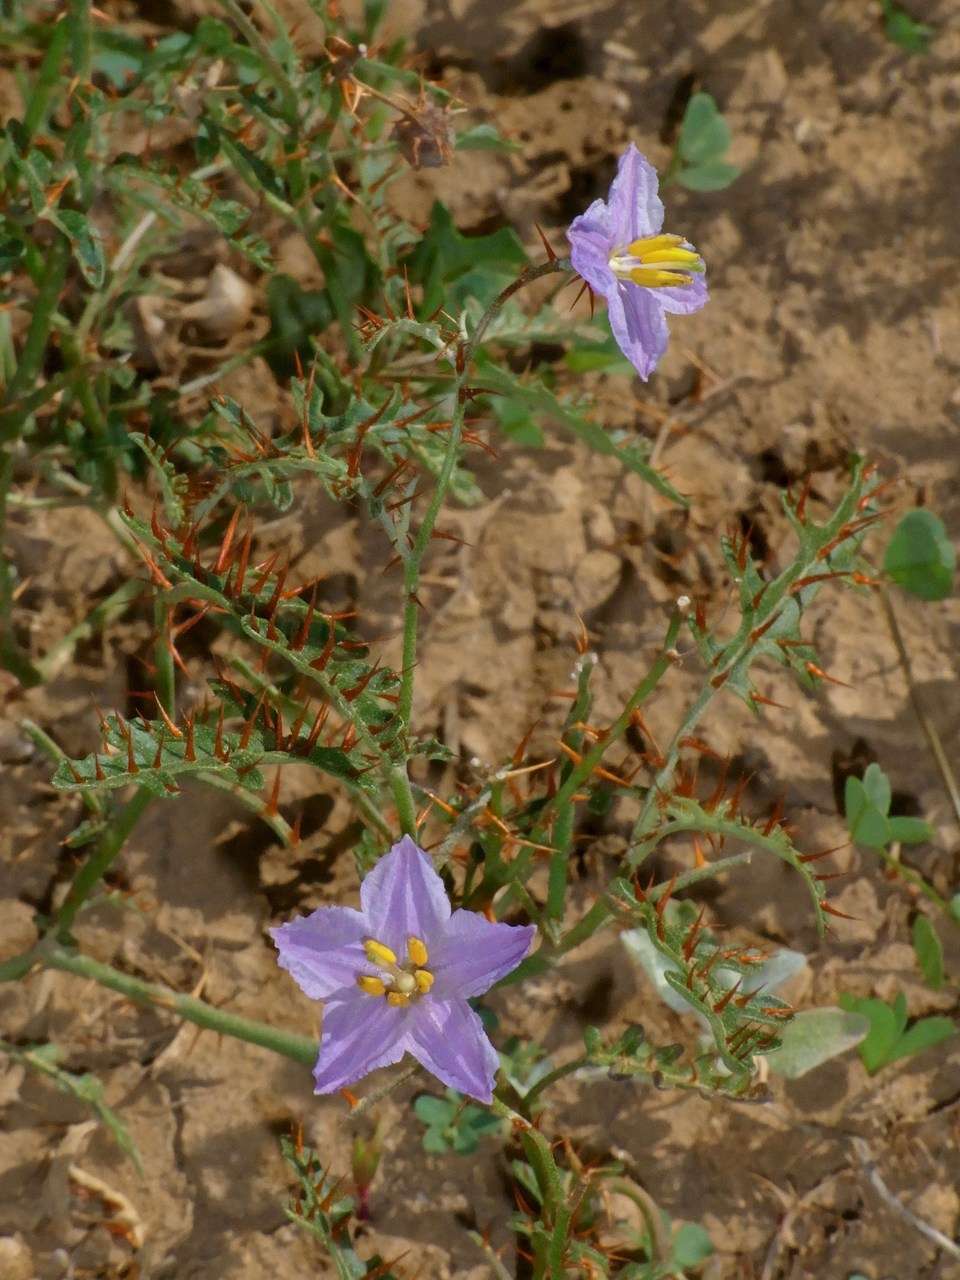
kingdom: Plantae
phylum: Tracheophyta
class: Magnoliopsida
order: Solanales
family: Solanaceae
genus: Solanum
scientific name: Solanum lacunarium
